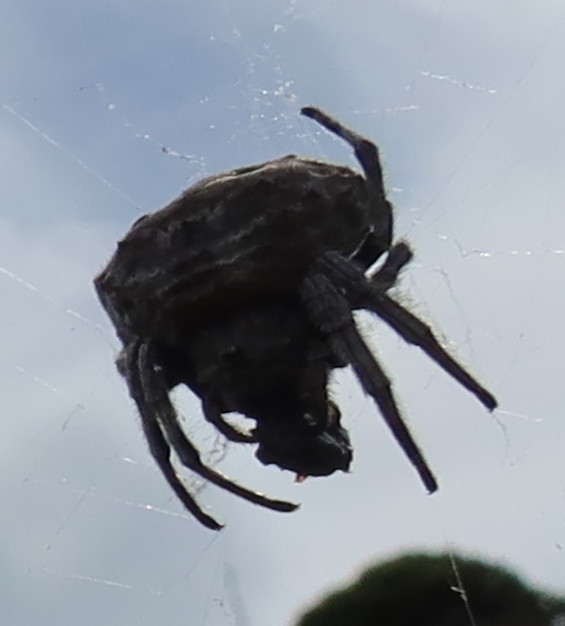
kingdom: Animalia
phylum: Arthropoda
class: Arachnida
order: Araneae
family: Araneidae
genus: Caerostris
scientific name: Caerostris corticosa
